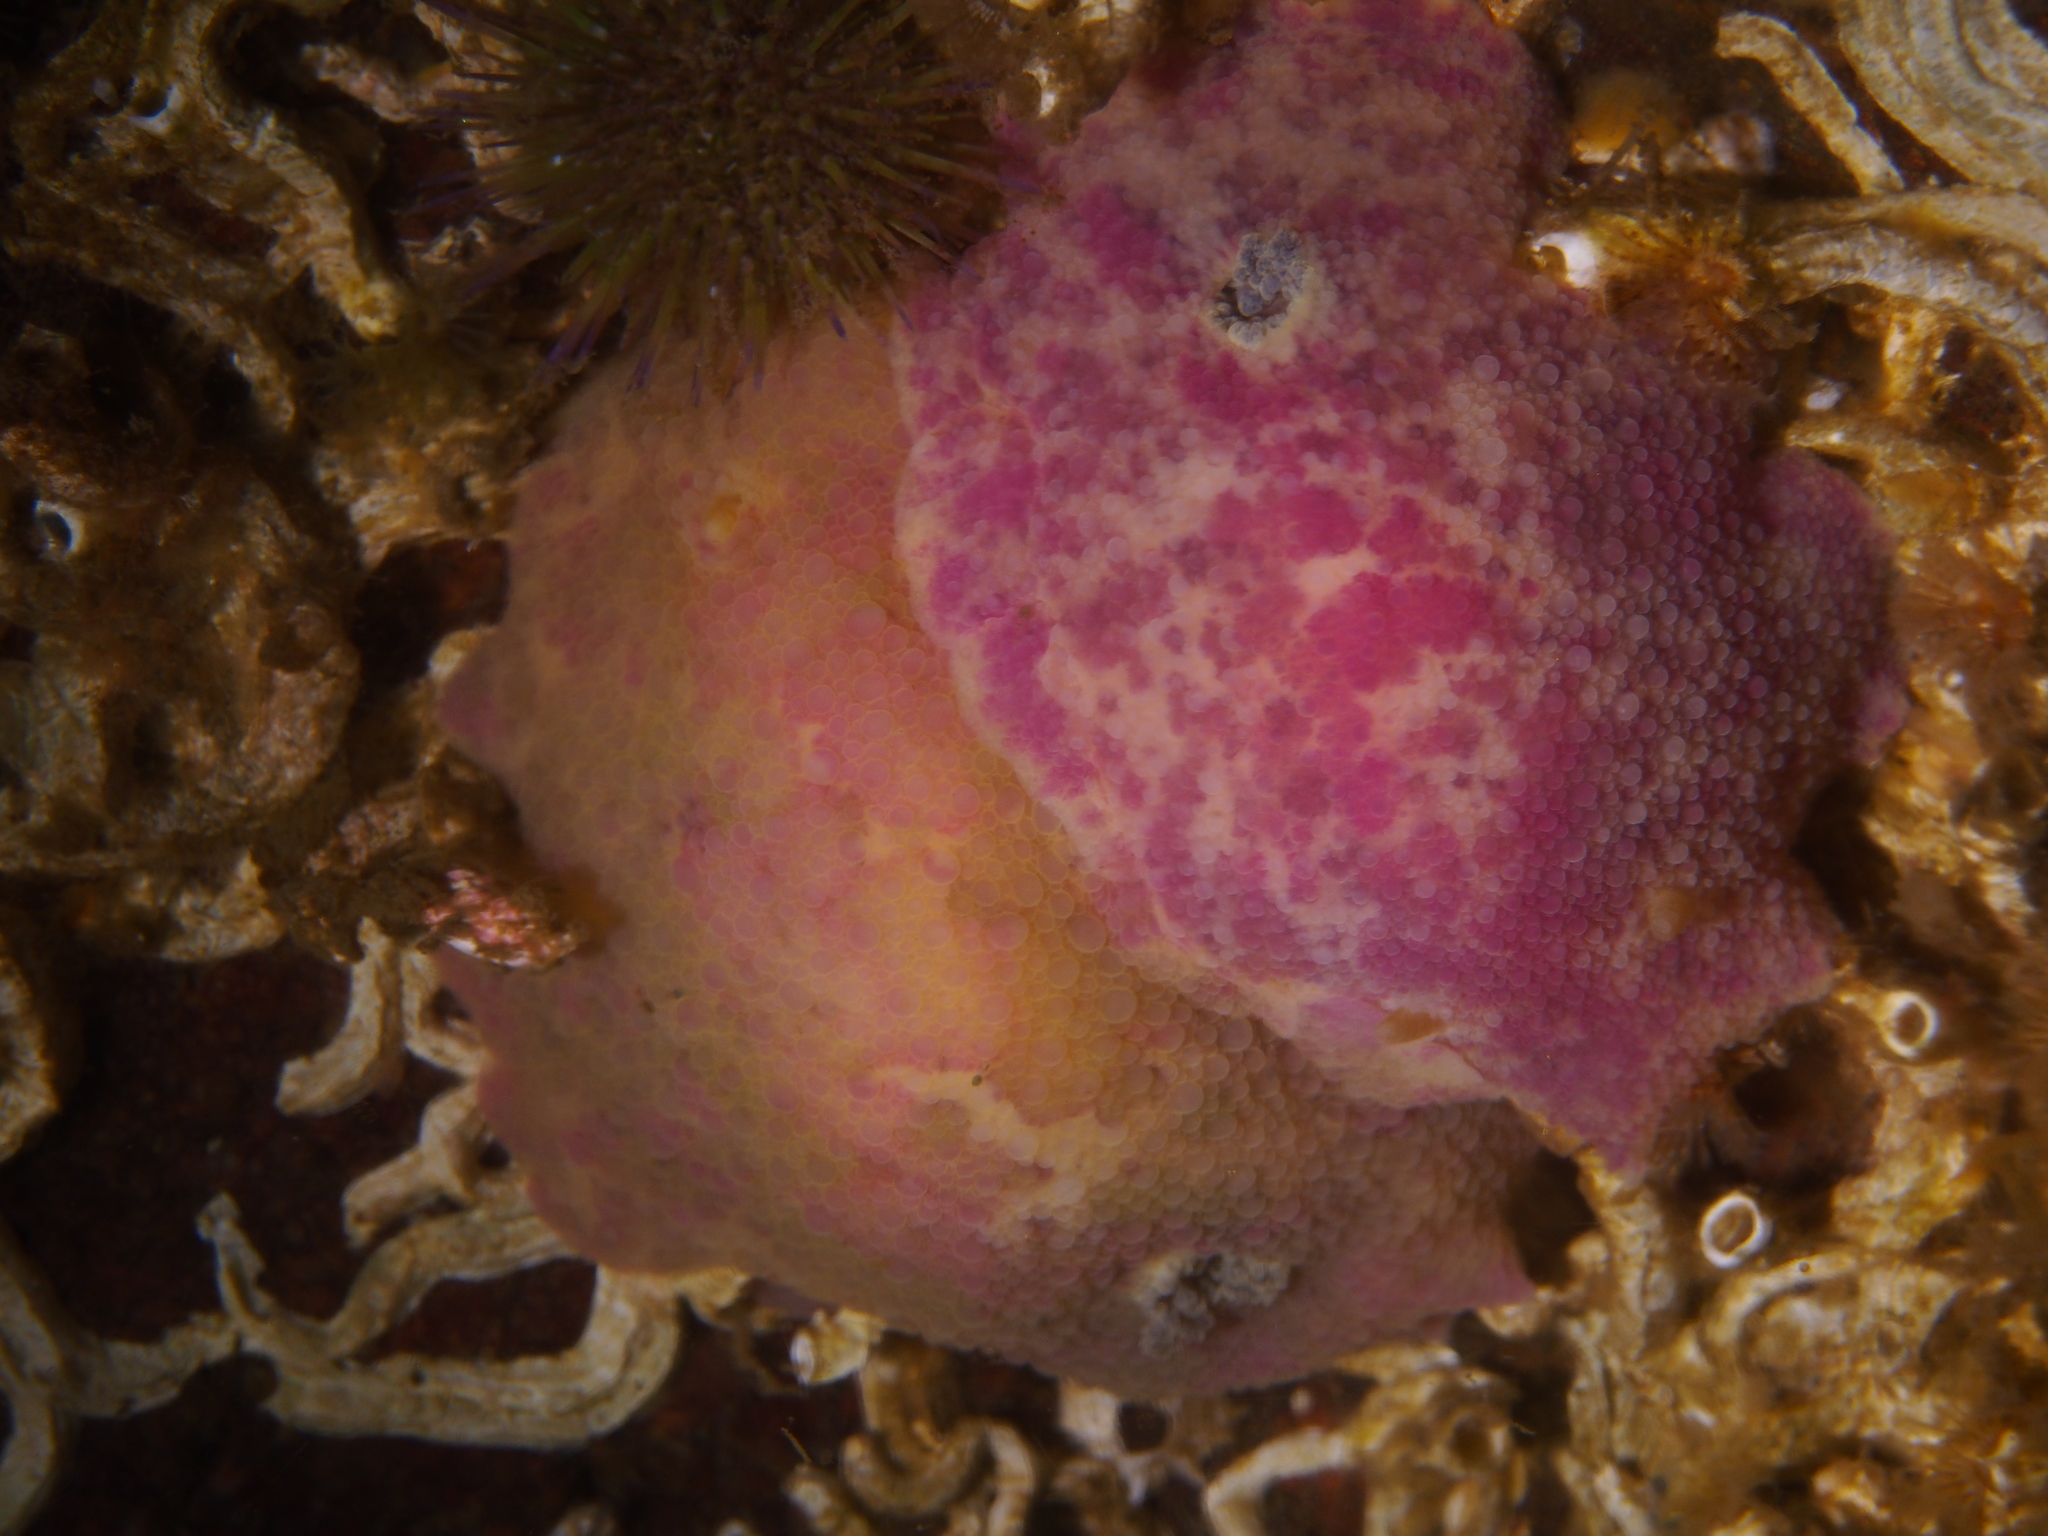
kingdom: Animalia
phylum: Mollusca
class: Gastropoda
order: Nudibranchia
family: Dorididae
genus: Doris
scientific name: Doris pseudoargus
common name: Sea lemon
